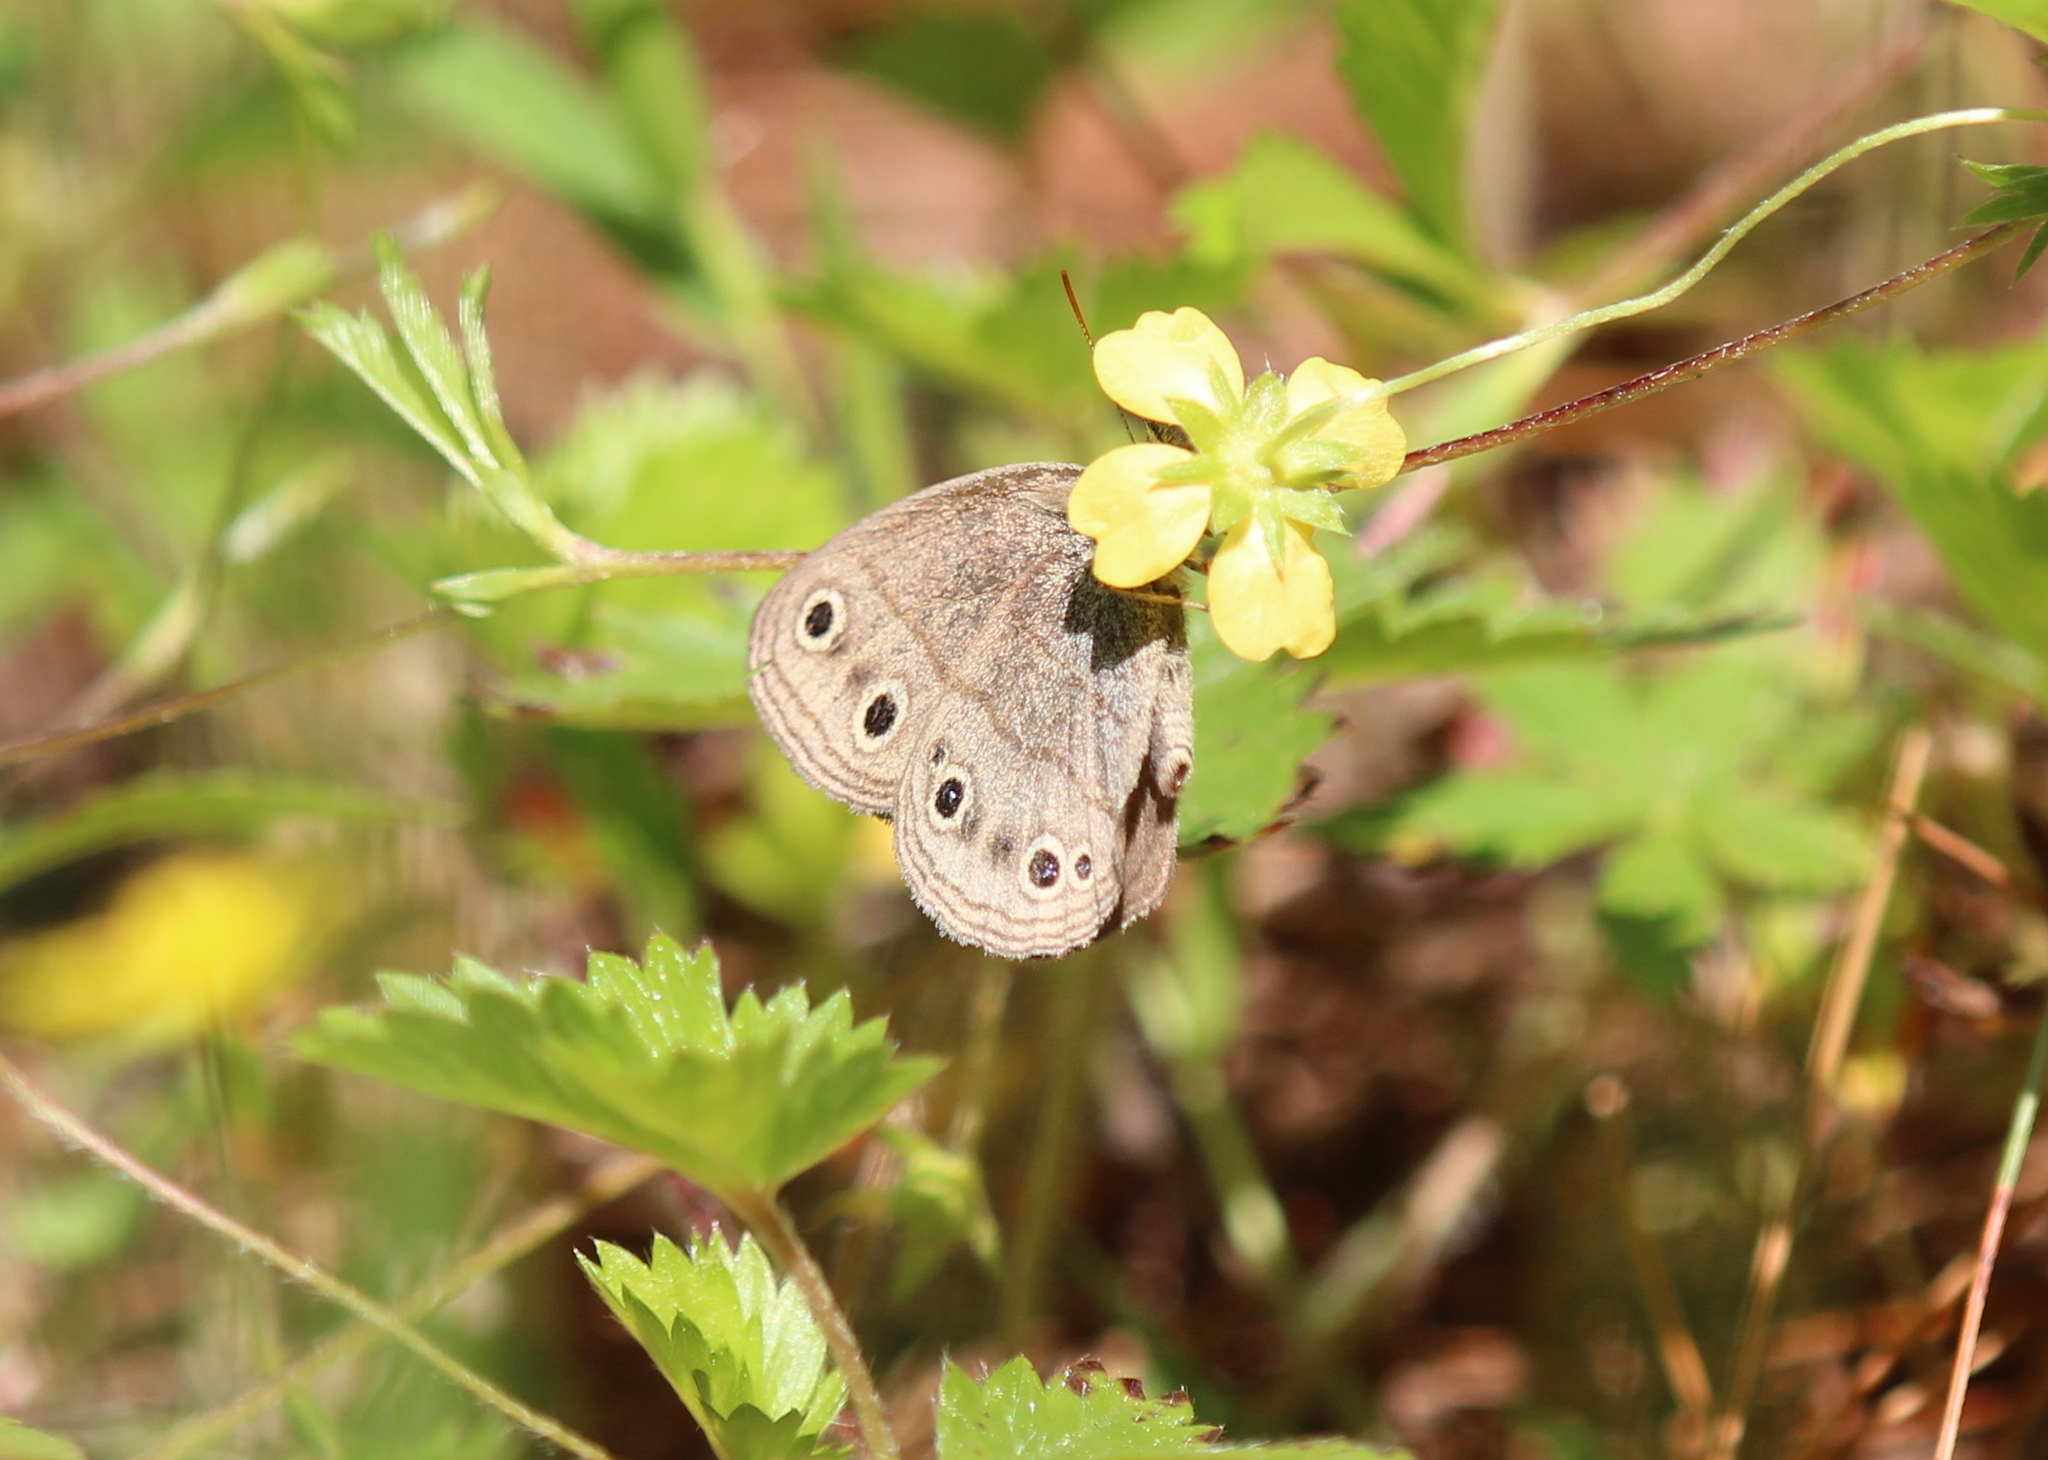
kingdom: Animalia
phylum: Arthropoda
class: Insecta
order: Lepidoptera
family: Nymphalidae
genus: Euptychia
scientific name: Euptychia cymela
